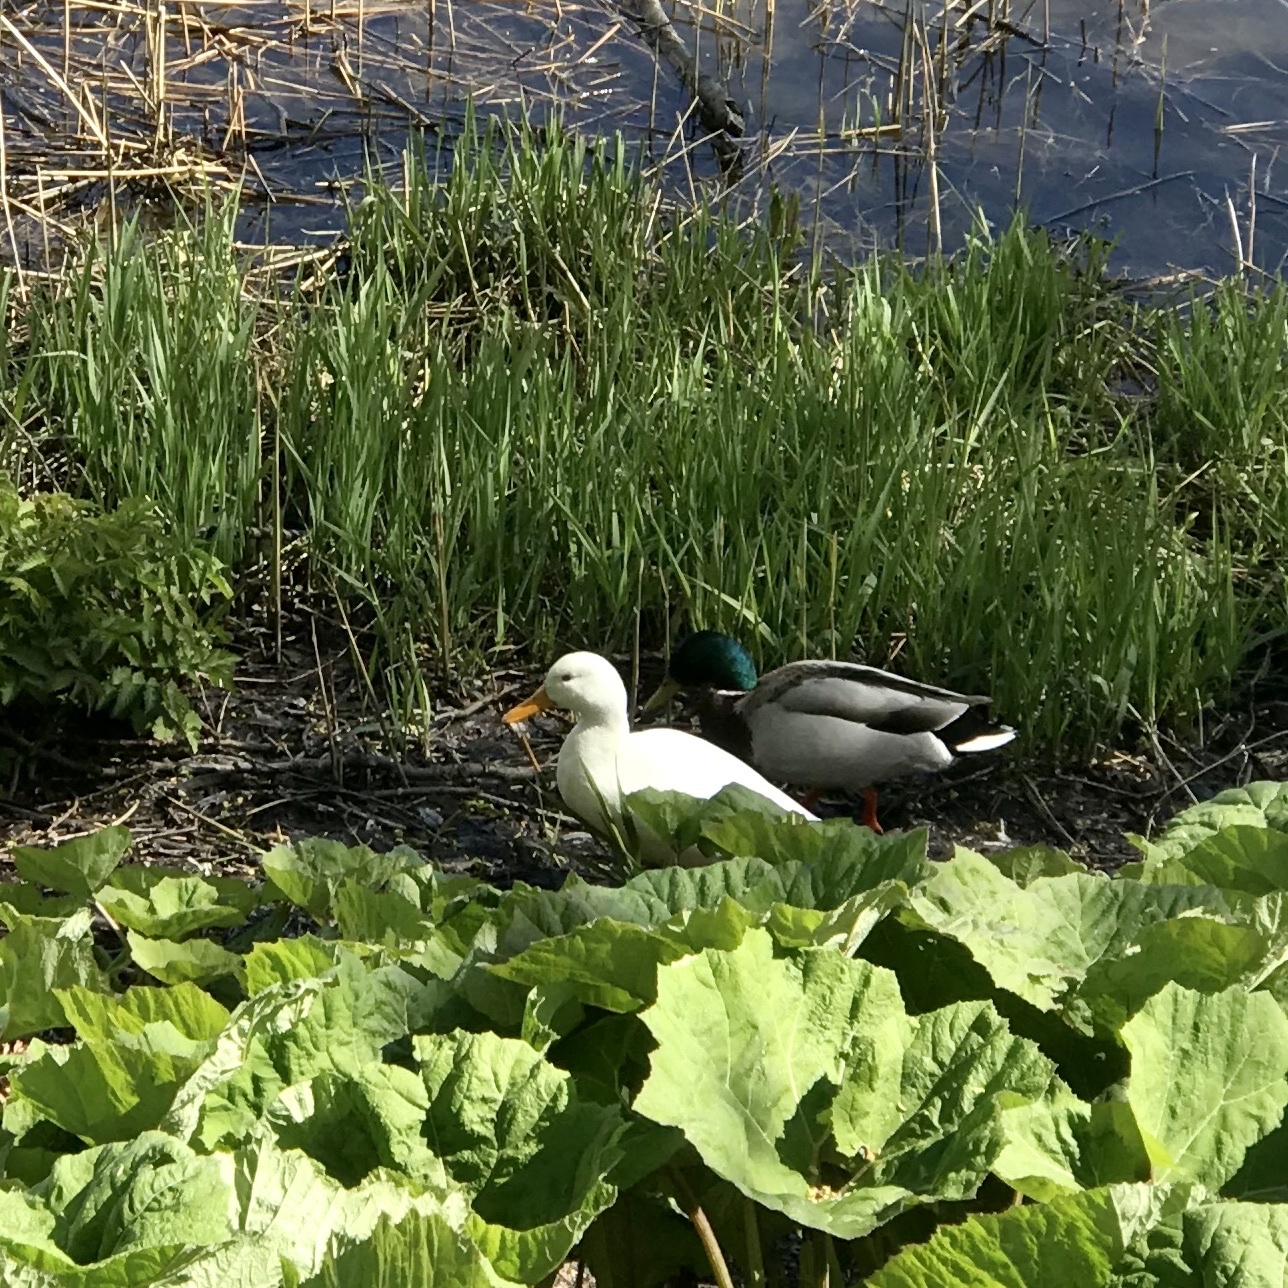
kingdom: Animalia
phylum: Chordata
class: Aves
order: Anseriformes
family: Anatidae
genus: Anas
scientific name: Anas platyrhynchos
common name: Mallard
